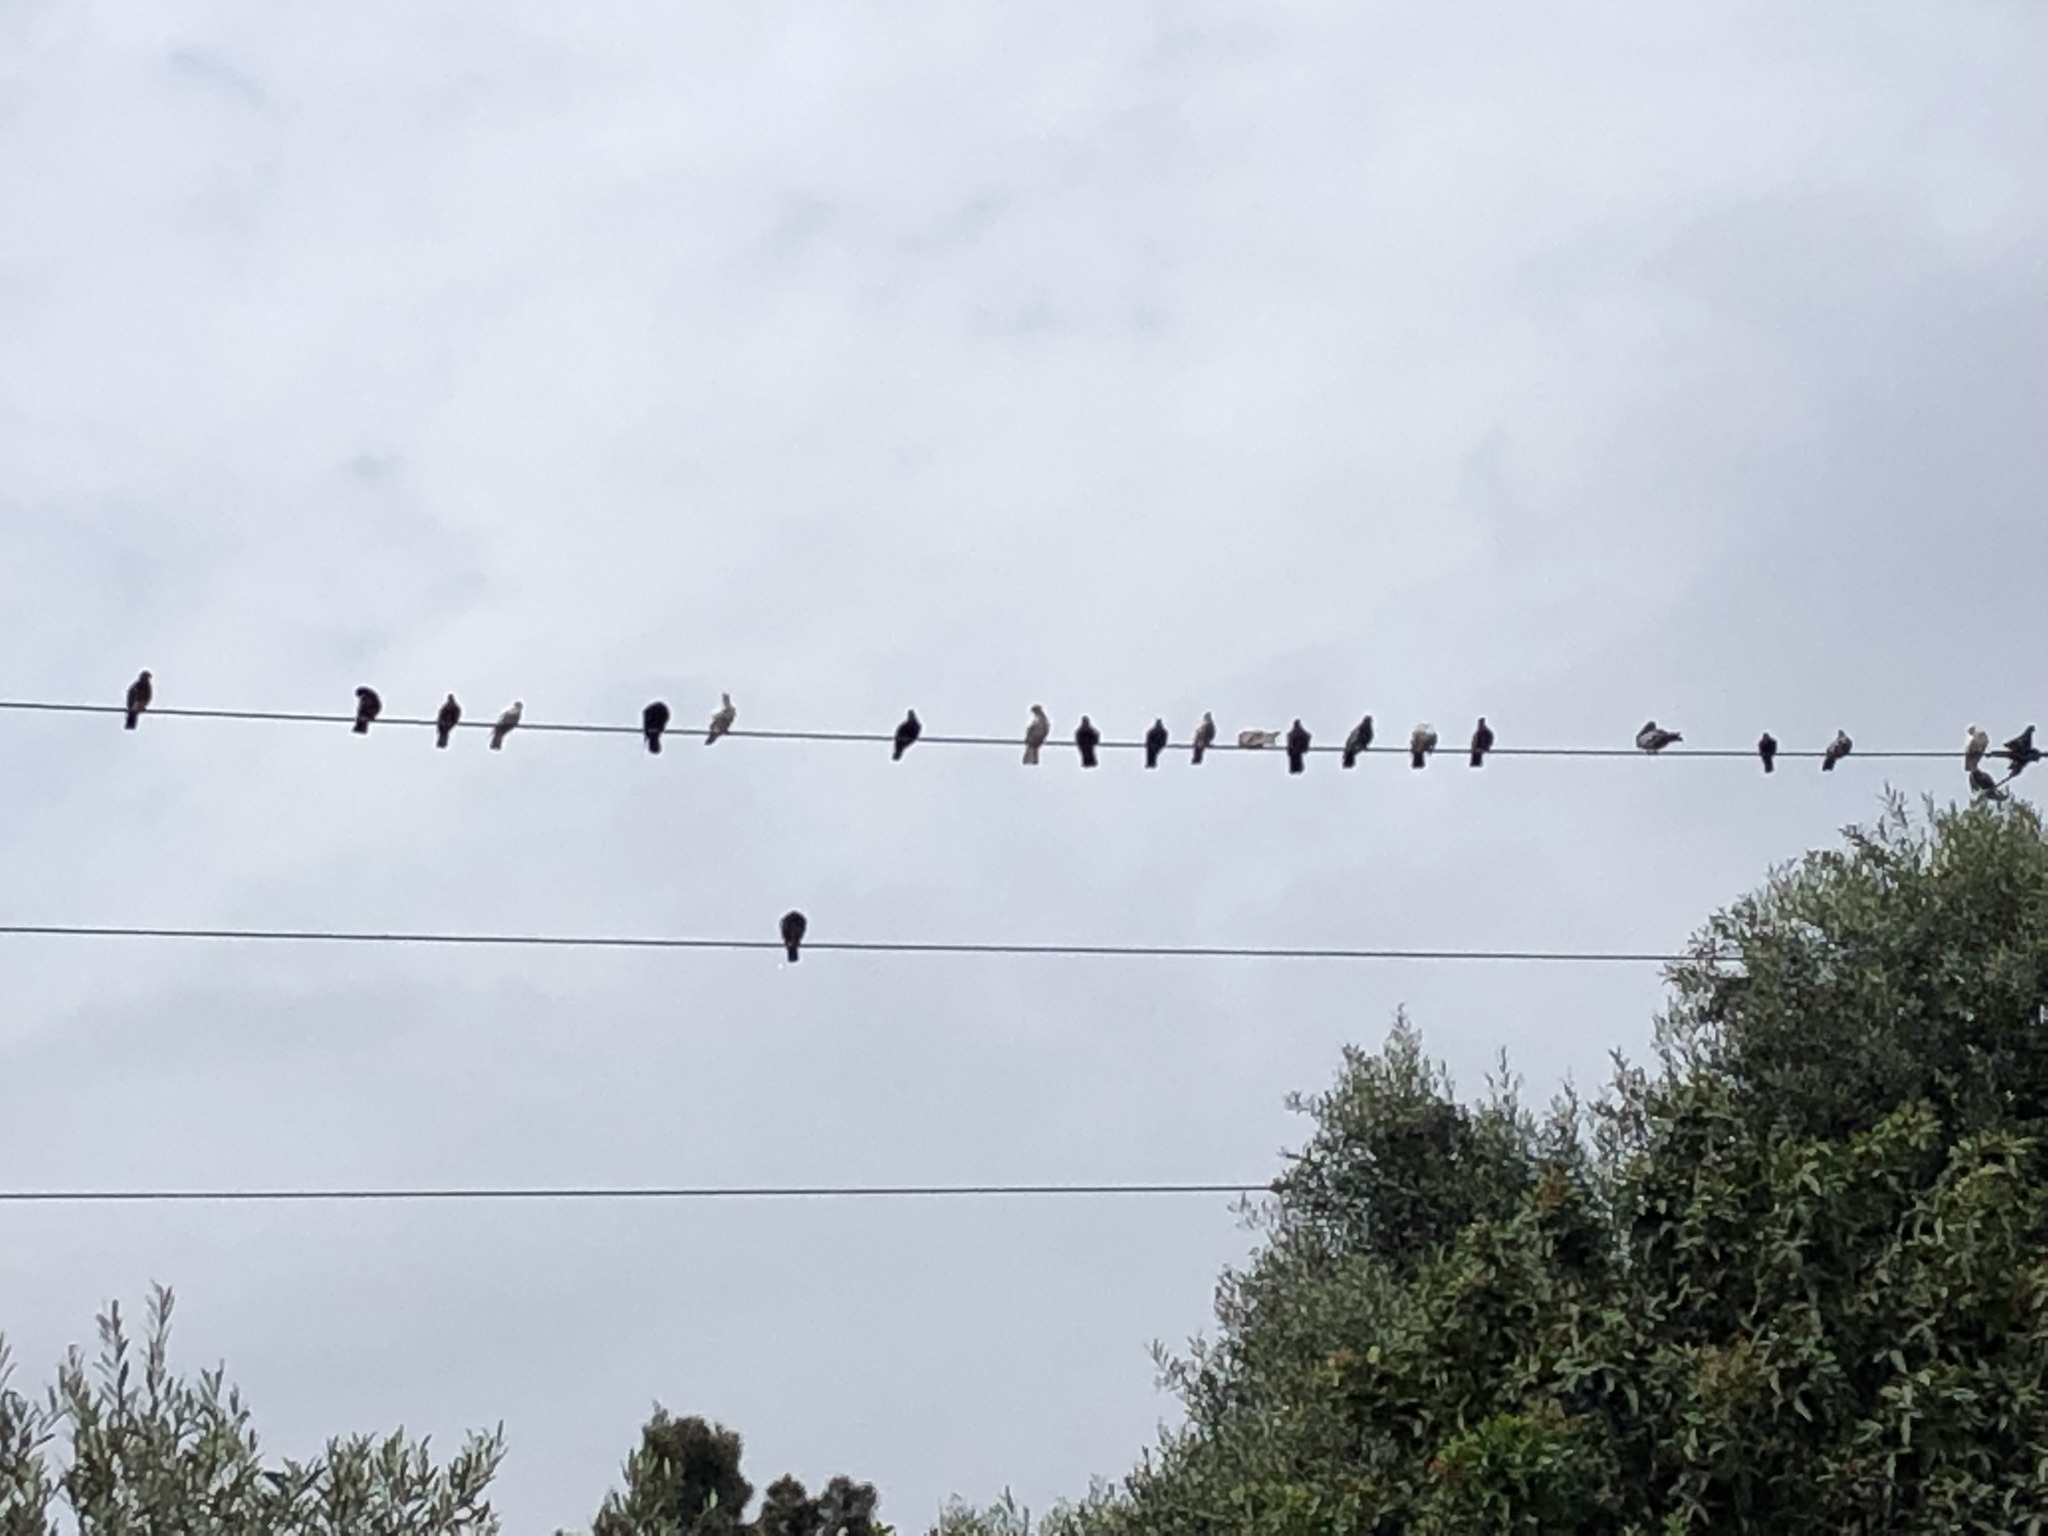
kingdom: Animalia
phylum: Chordata
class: Aves
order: Columbiformes
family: Columbidae
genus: Columba
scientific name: Columba livia
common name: Rock pigeon
